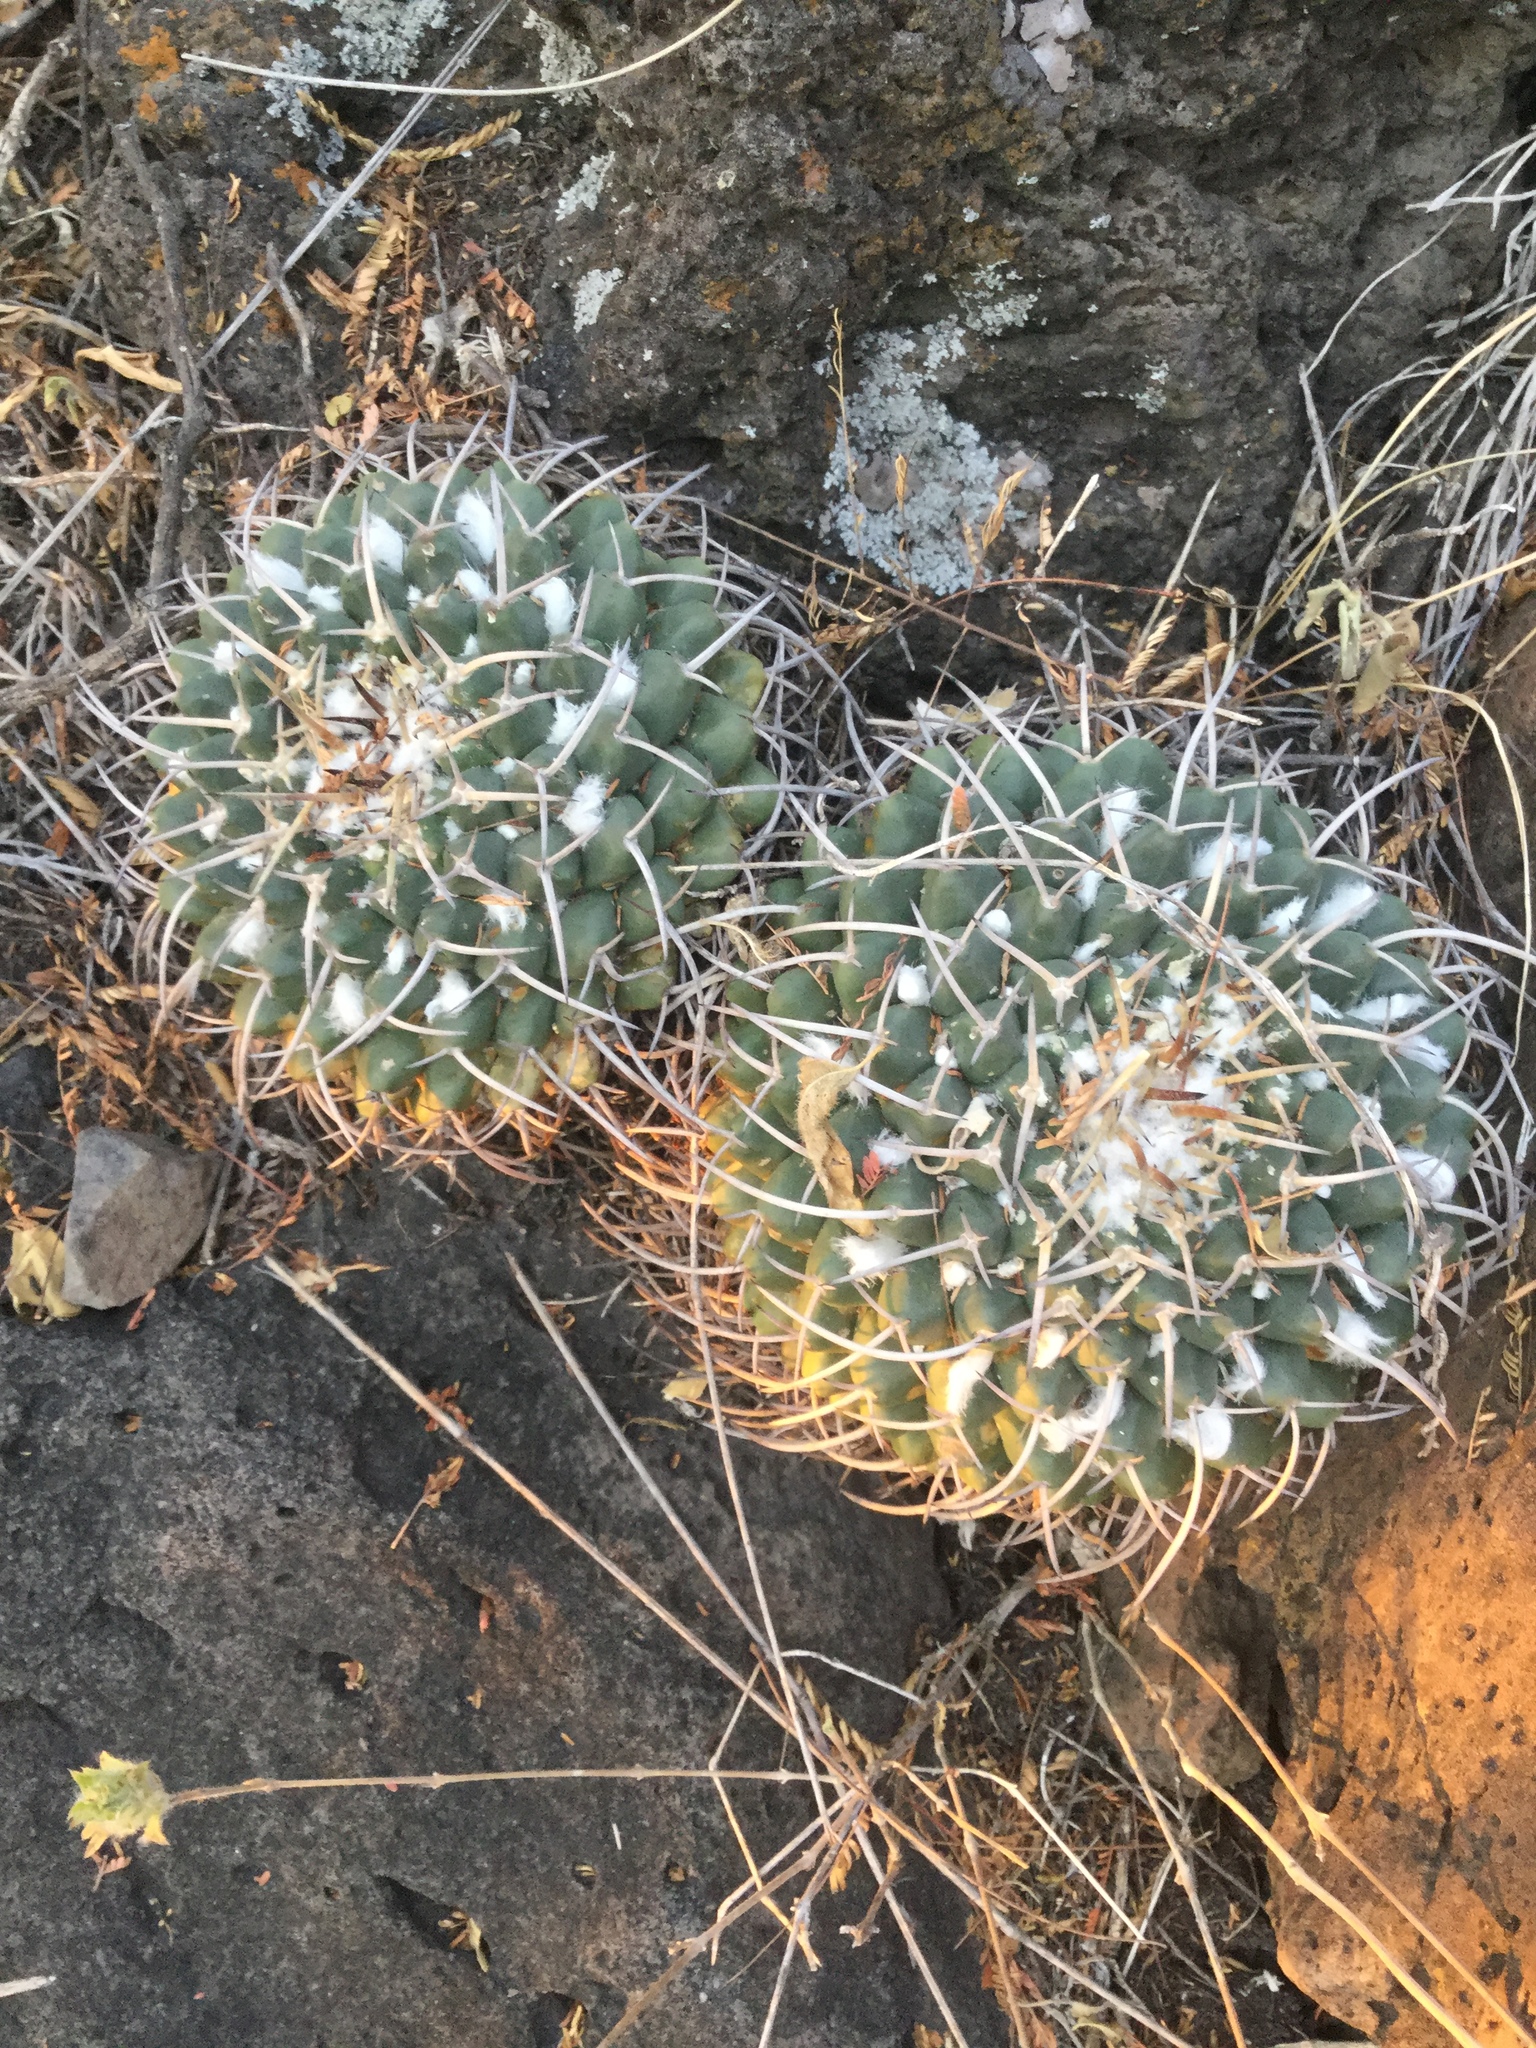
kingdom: Plantae
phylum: Tracheophyta
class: Magnoliopsida
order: Caryophyllales
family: Cactaceae
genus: Mammillaria
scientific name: Mammillaria magnimamma
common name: Mexican pincushion
